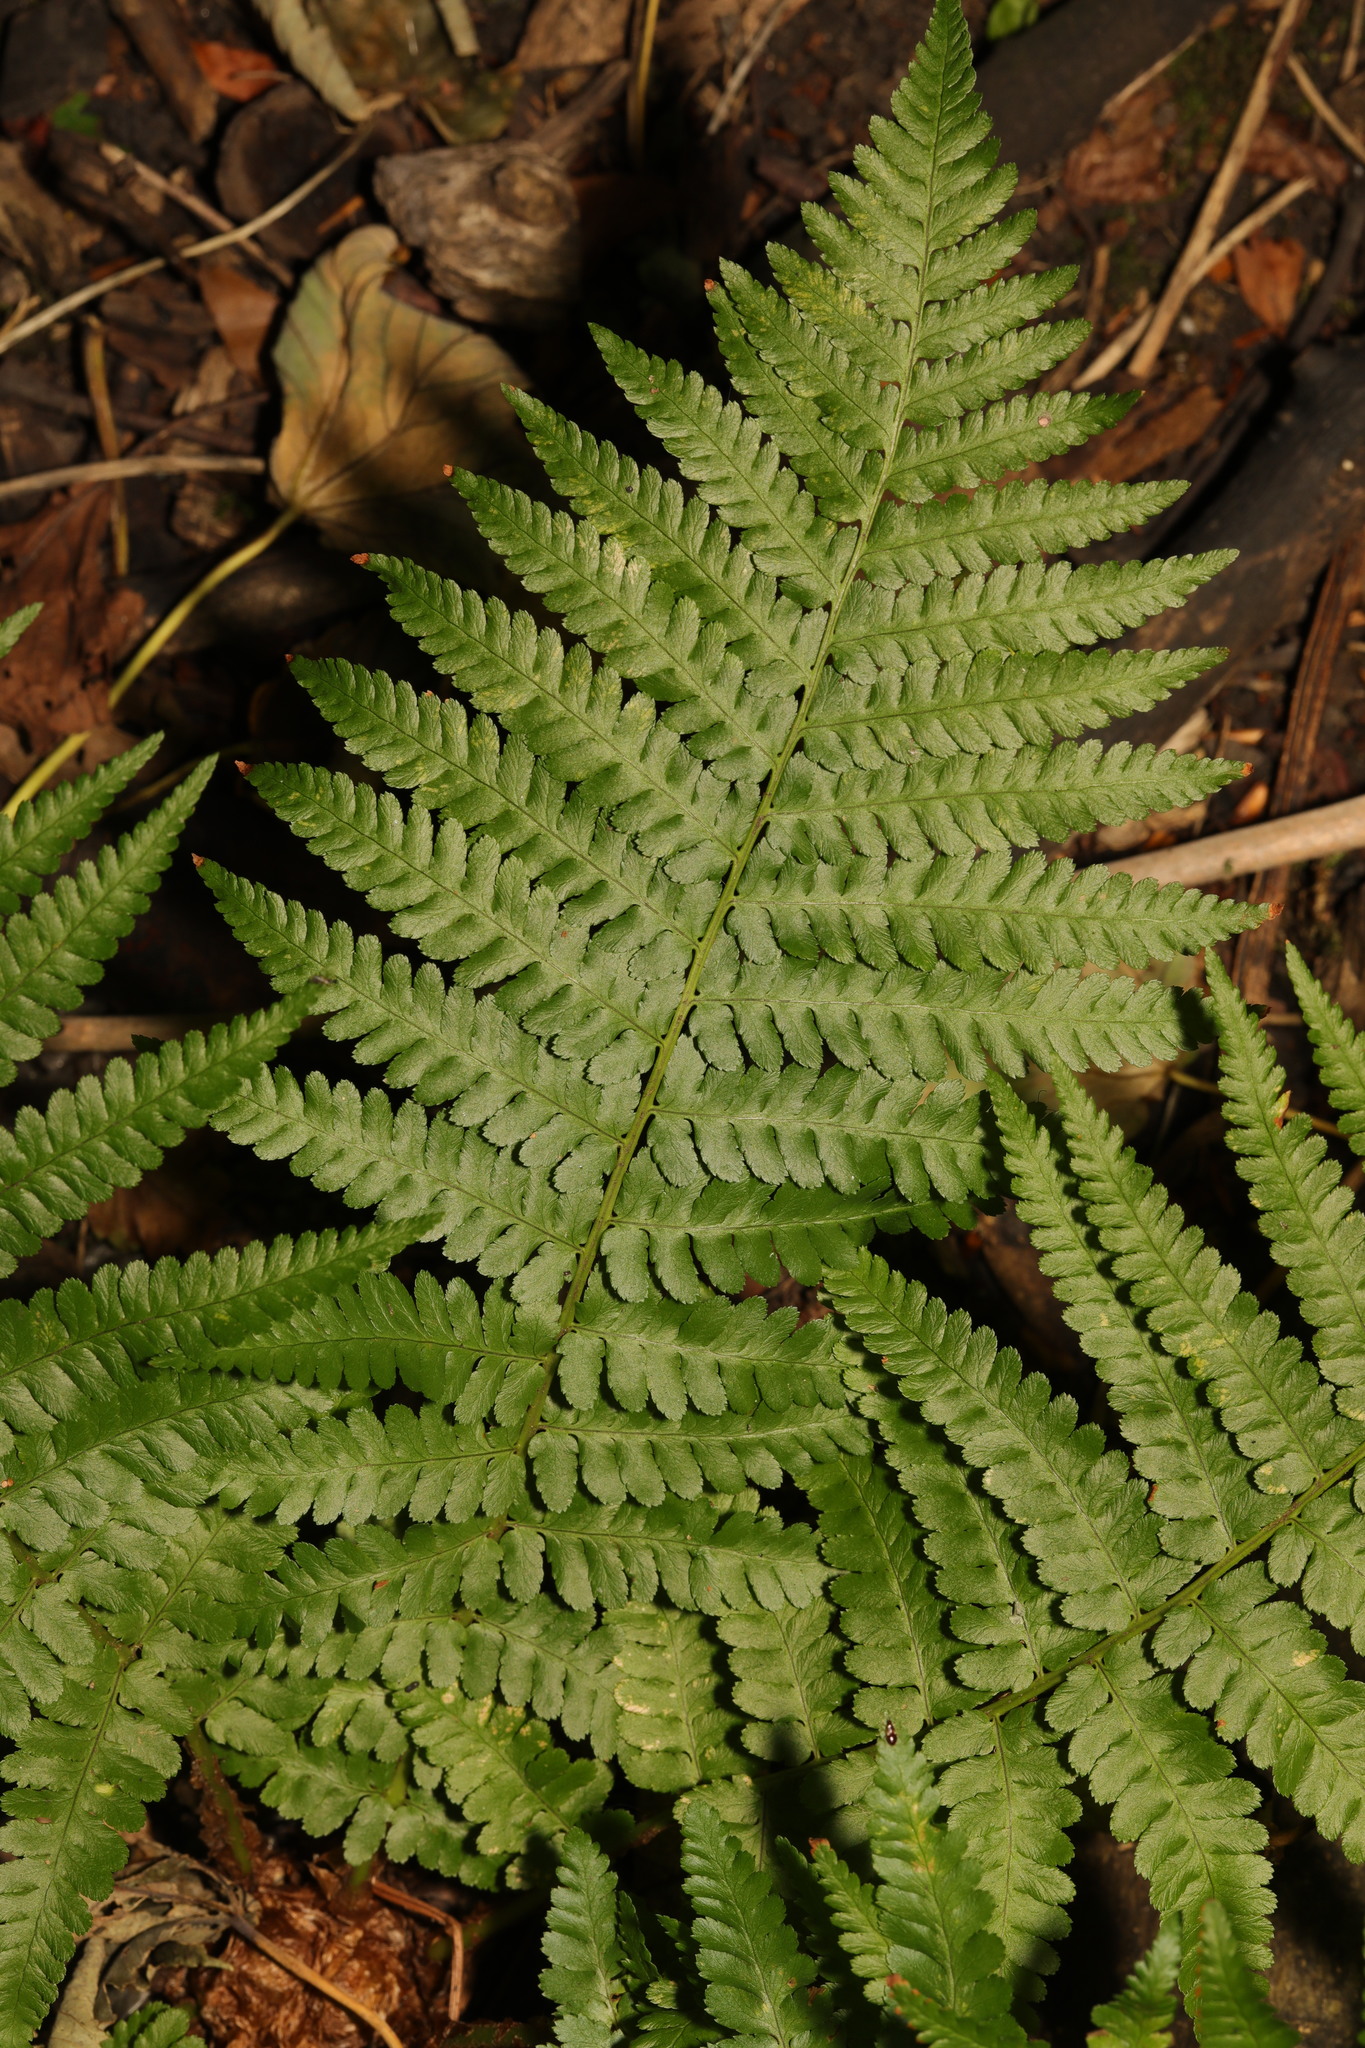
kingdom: Plantae
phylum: Tracheophyta
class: Polypodiopsida
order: Polypodiales
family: Dryopteridaceae
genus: Dryopteris
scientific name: Dryopteris filix-mas
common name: Male fern
